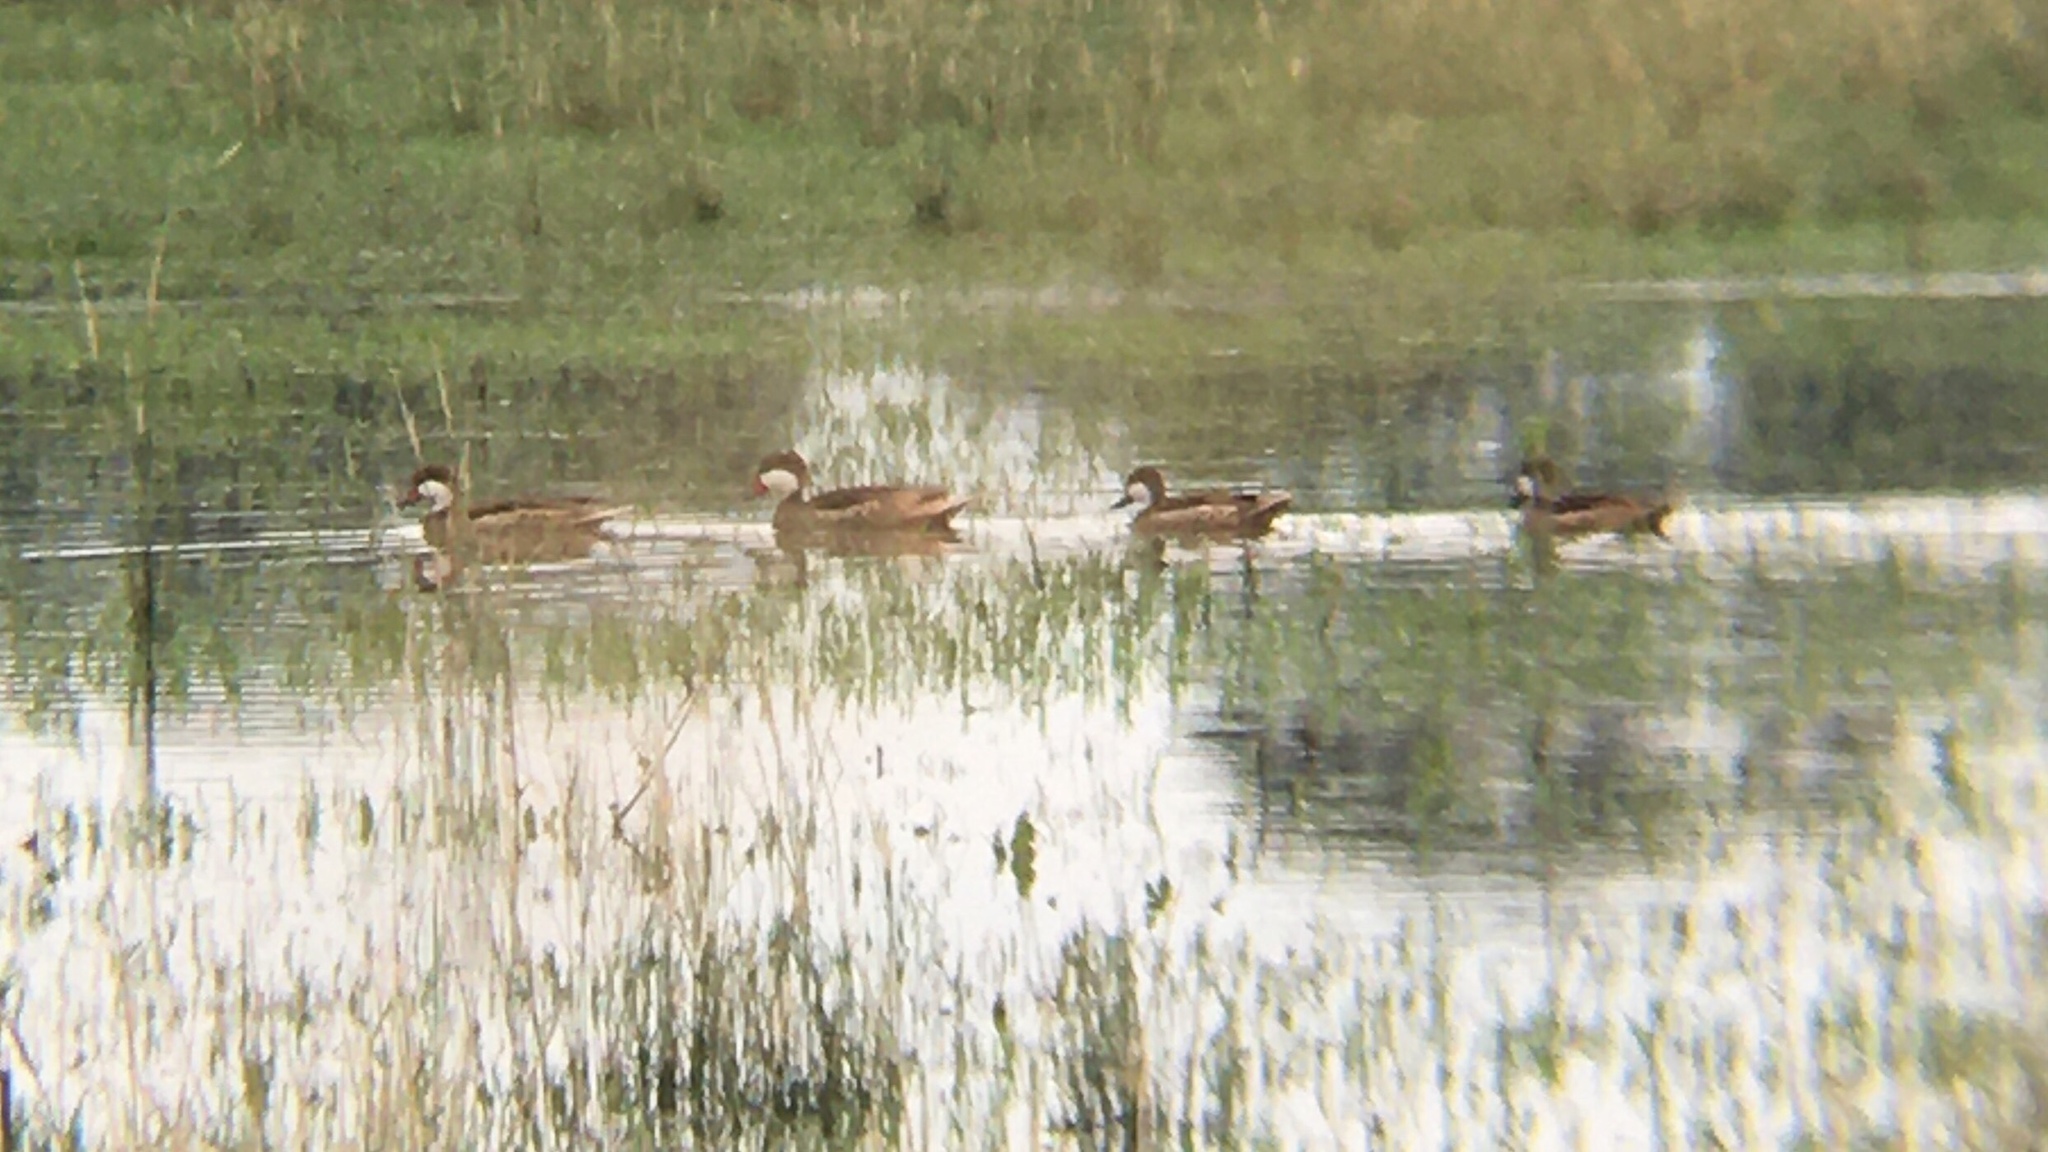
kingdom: Animalia
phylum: Chordata
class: Aves
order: Anseriformes
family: Anatidae
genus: Anas
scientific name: Anas bahamensis
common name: White-cheeked pintail
